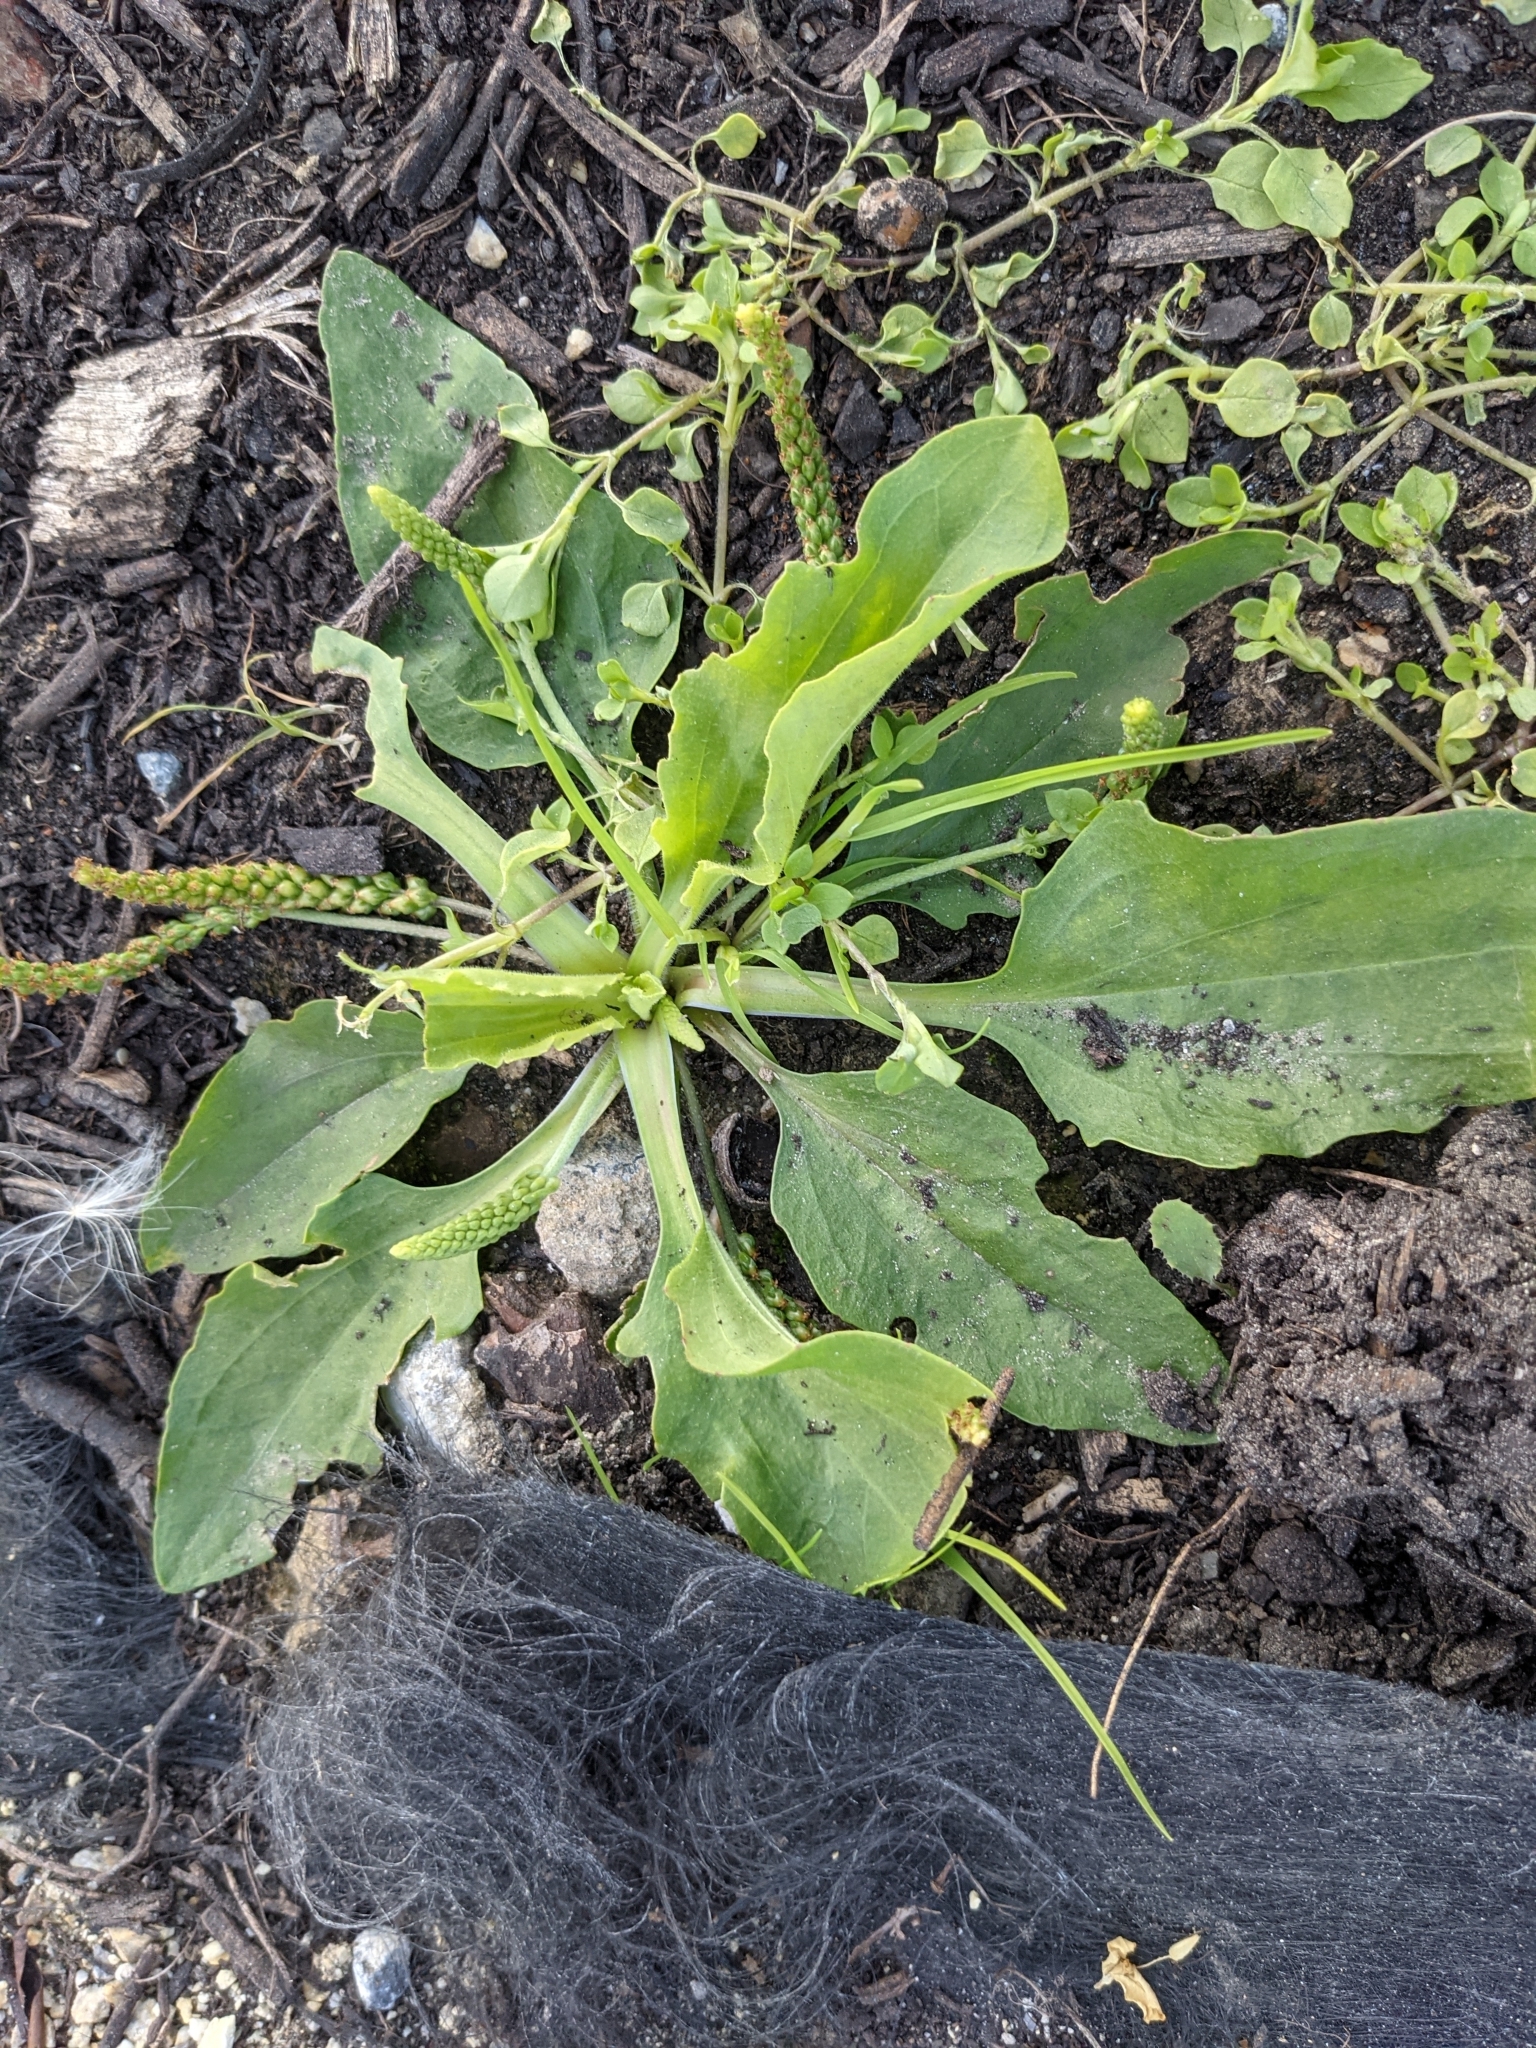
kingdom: Plantae
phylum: Tracheophyta
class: Magnoliopsida
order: Lamiales
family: Plantaginaceae
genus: Plantago
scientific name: Plantago major
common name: Common plantain
